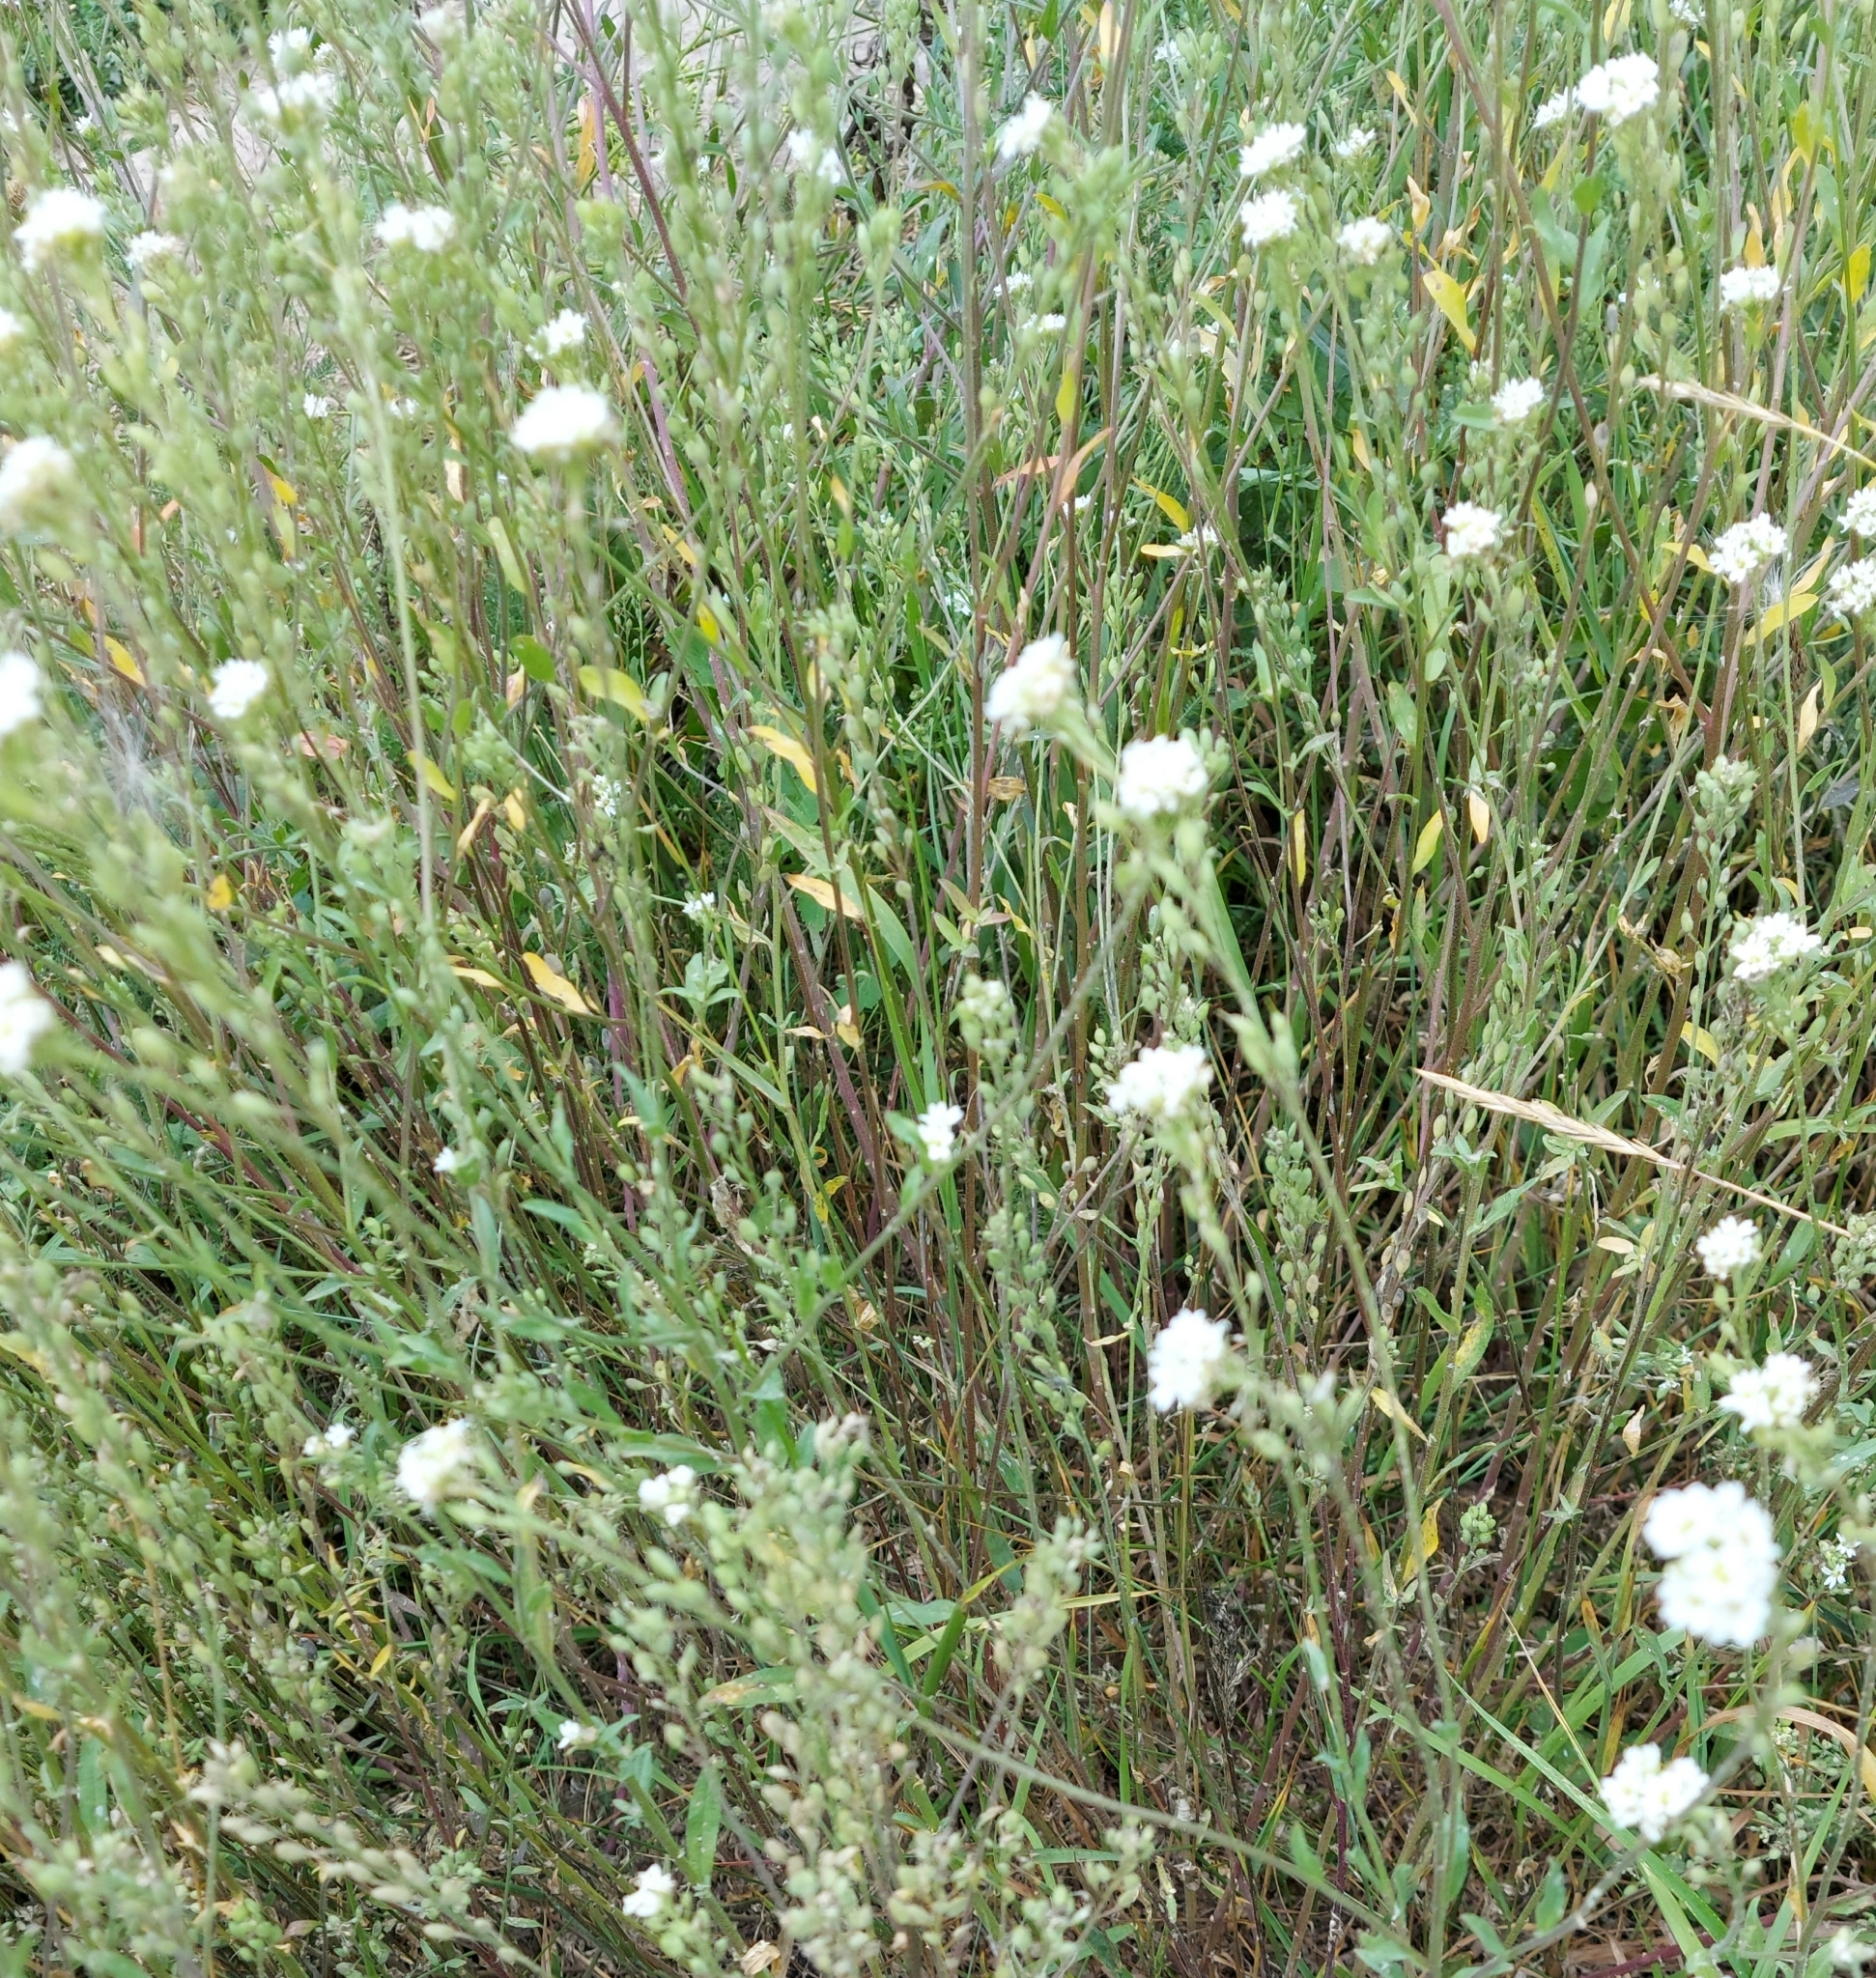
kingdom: Plantae
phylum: Tracheophyta
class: Magnoliopsida
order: Brassicales
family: Brassicaceae
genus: Berteroa
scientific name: Berteroa incana
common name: Hoary alison
